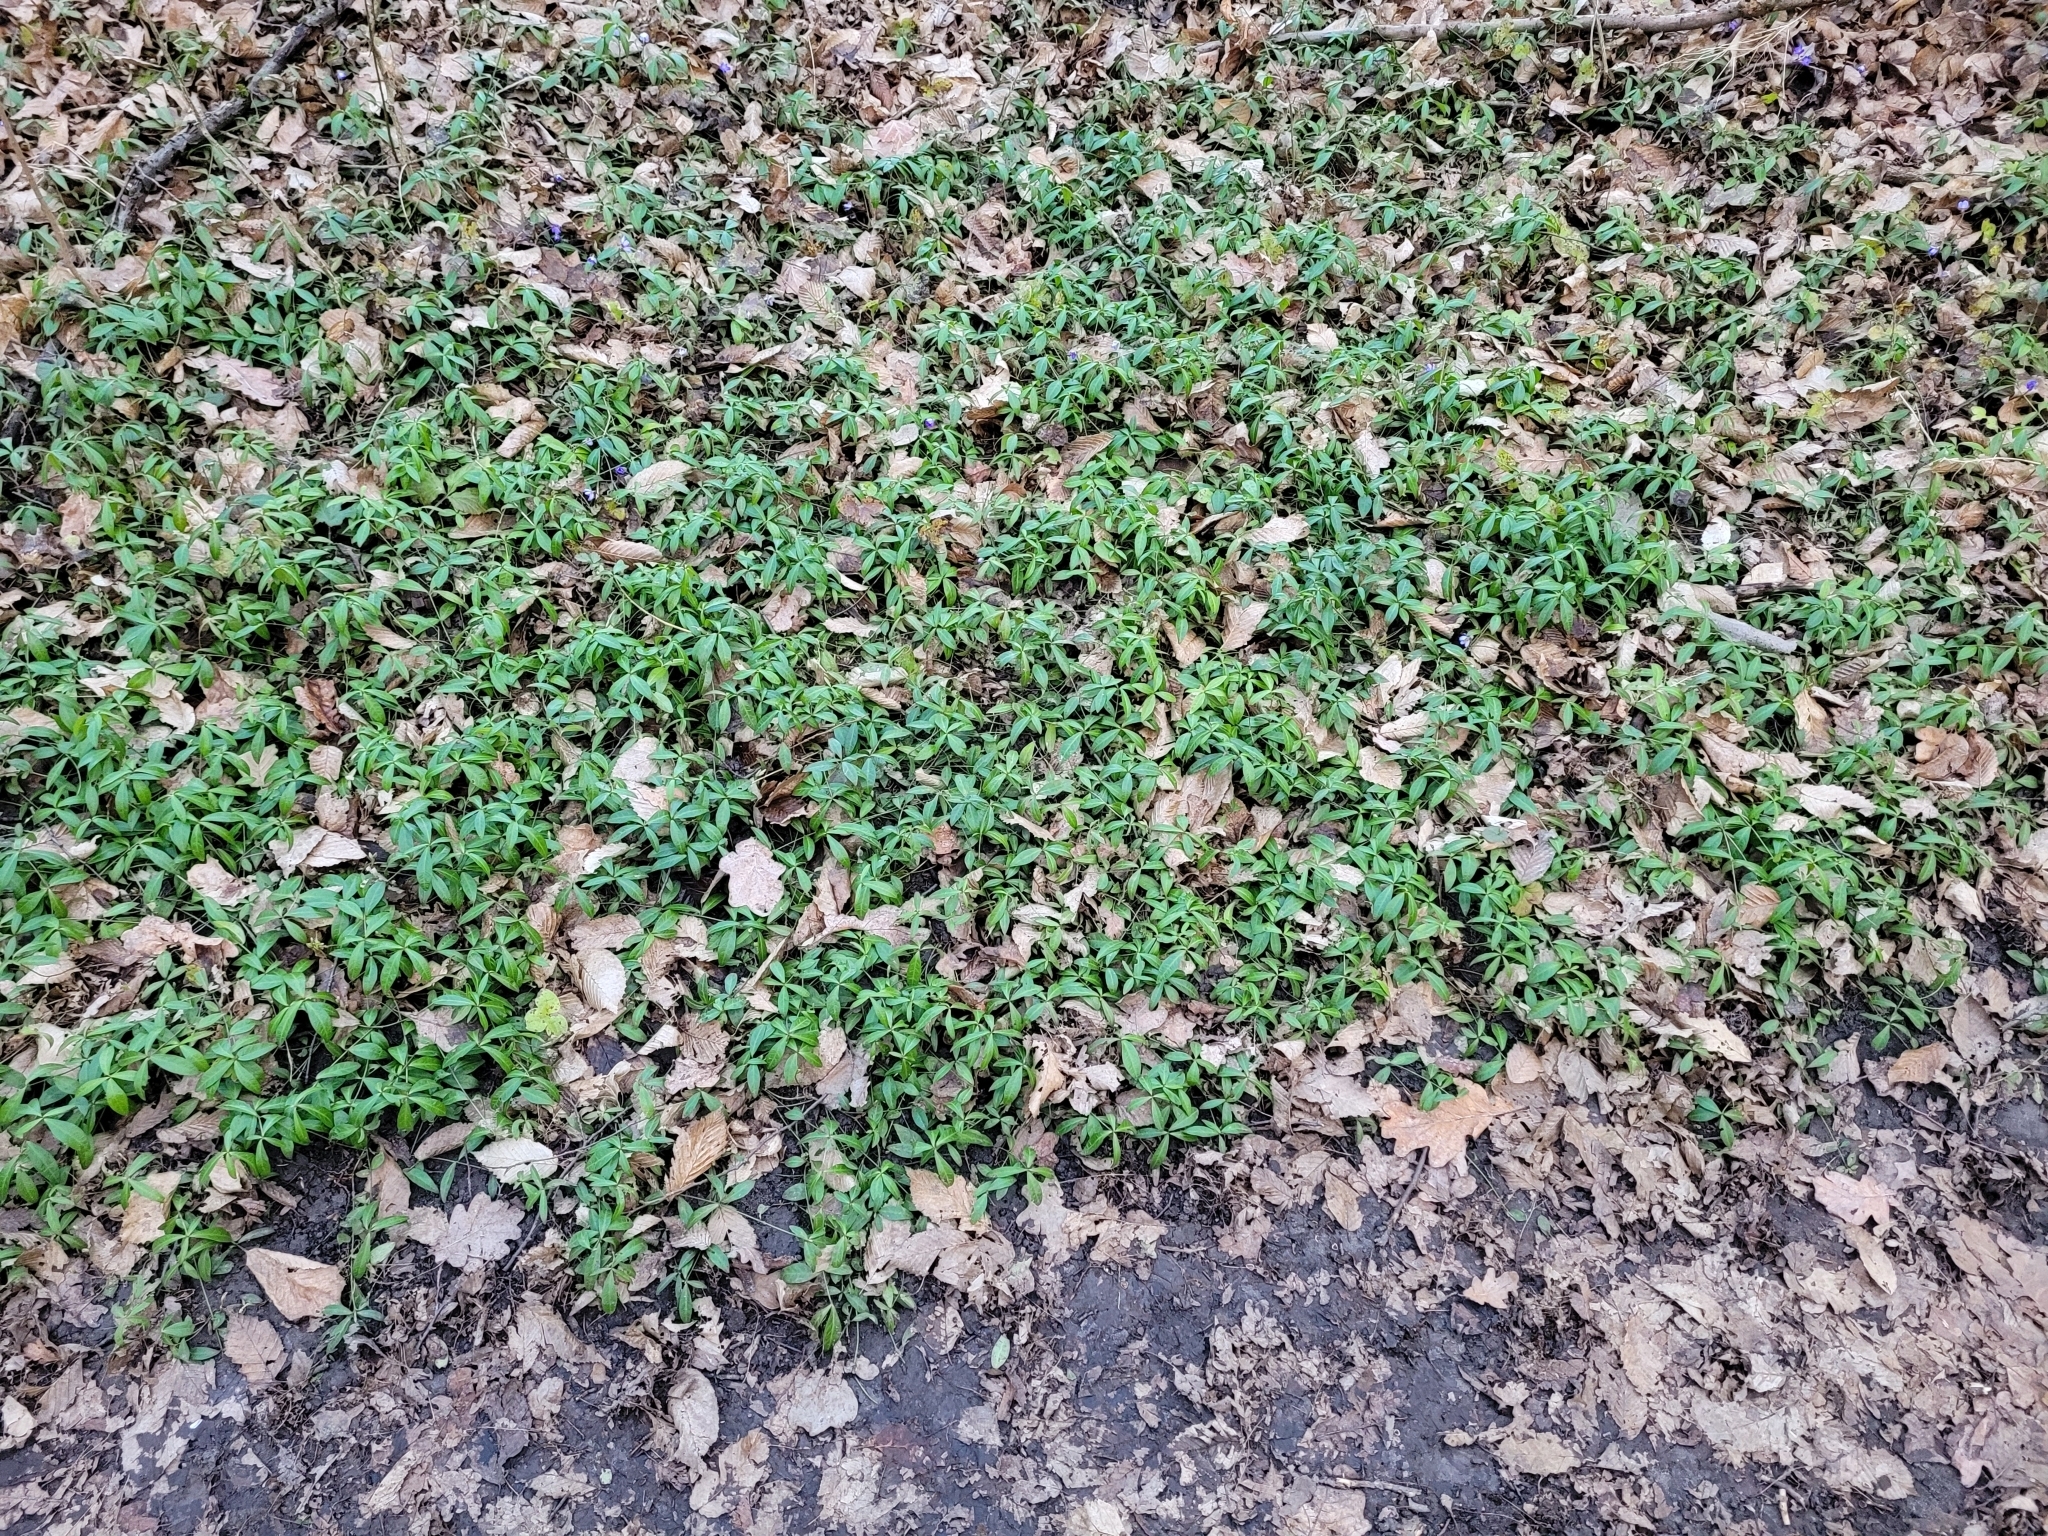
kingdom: Plantae
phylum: Tracheophyta
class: Magnoliopsida
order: Gentianales
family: Apocynaceae
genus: Vinca
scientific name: Vinca minor
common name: Lesser periwinkle
